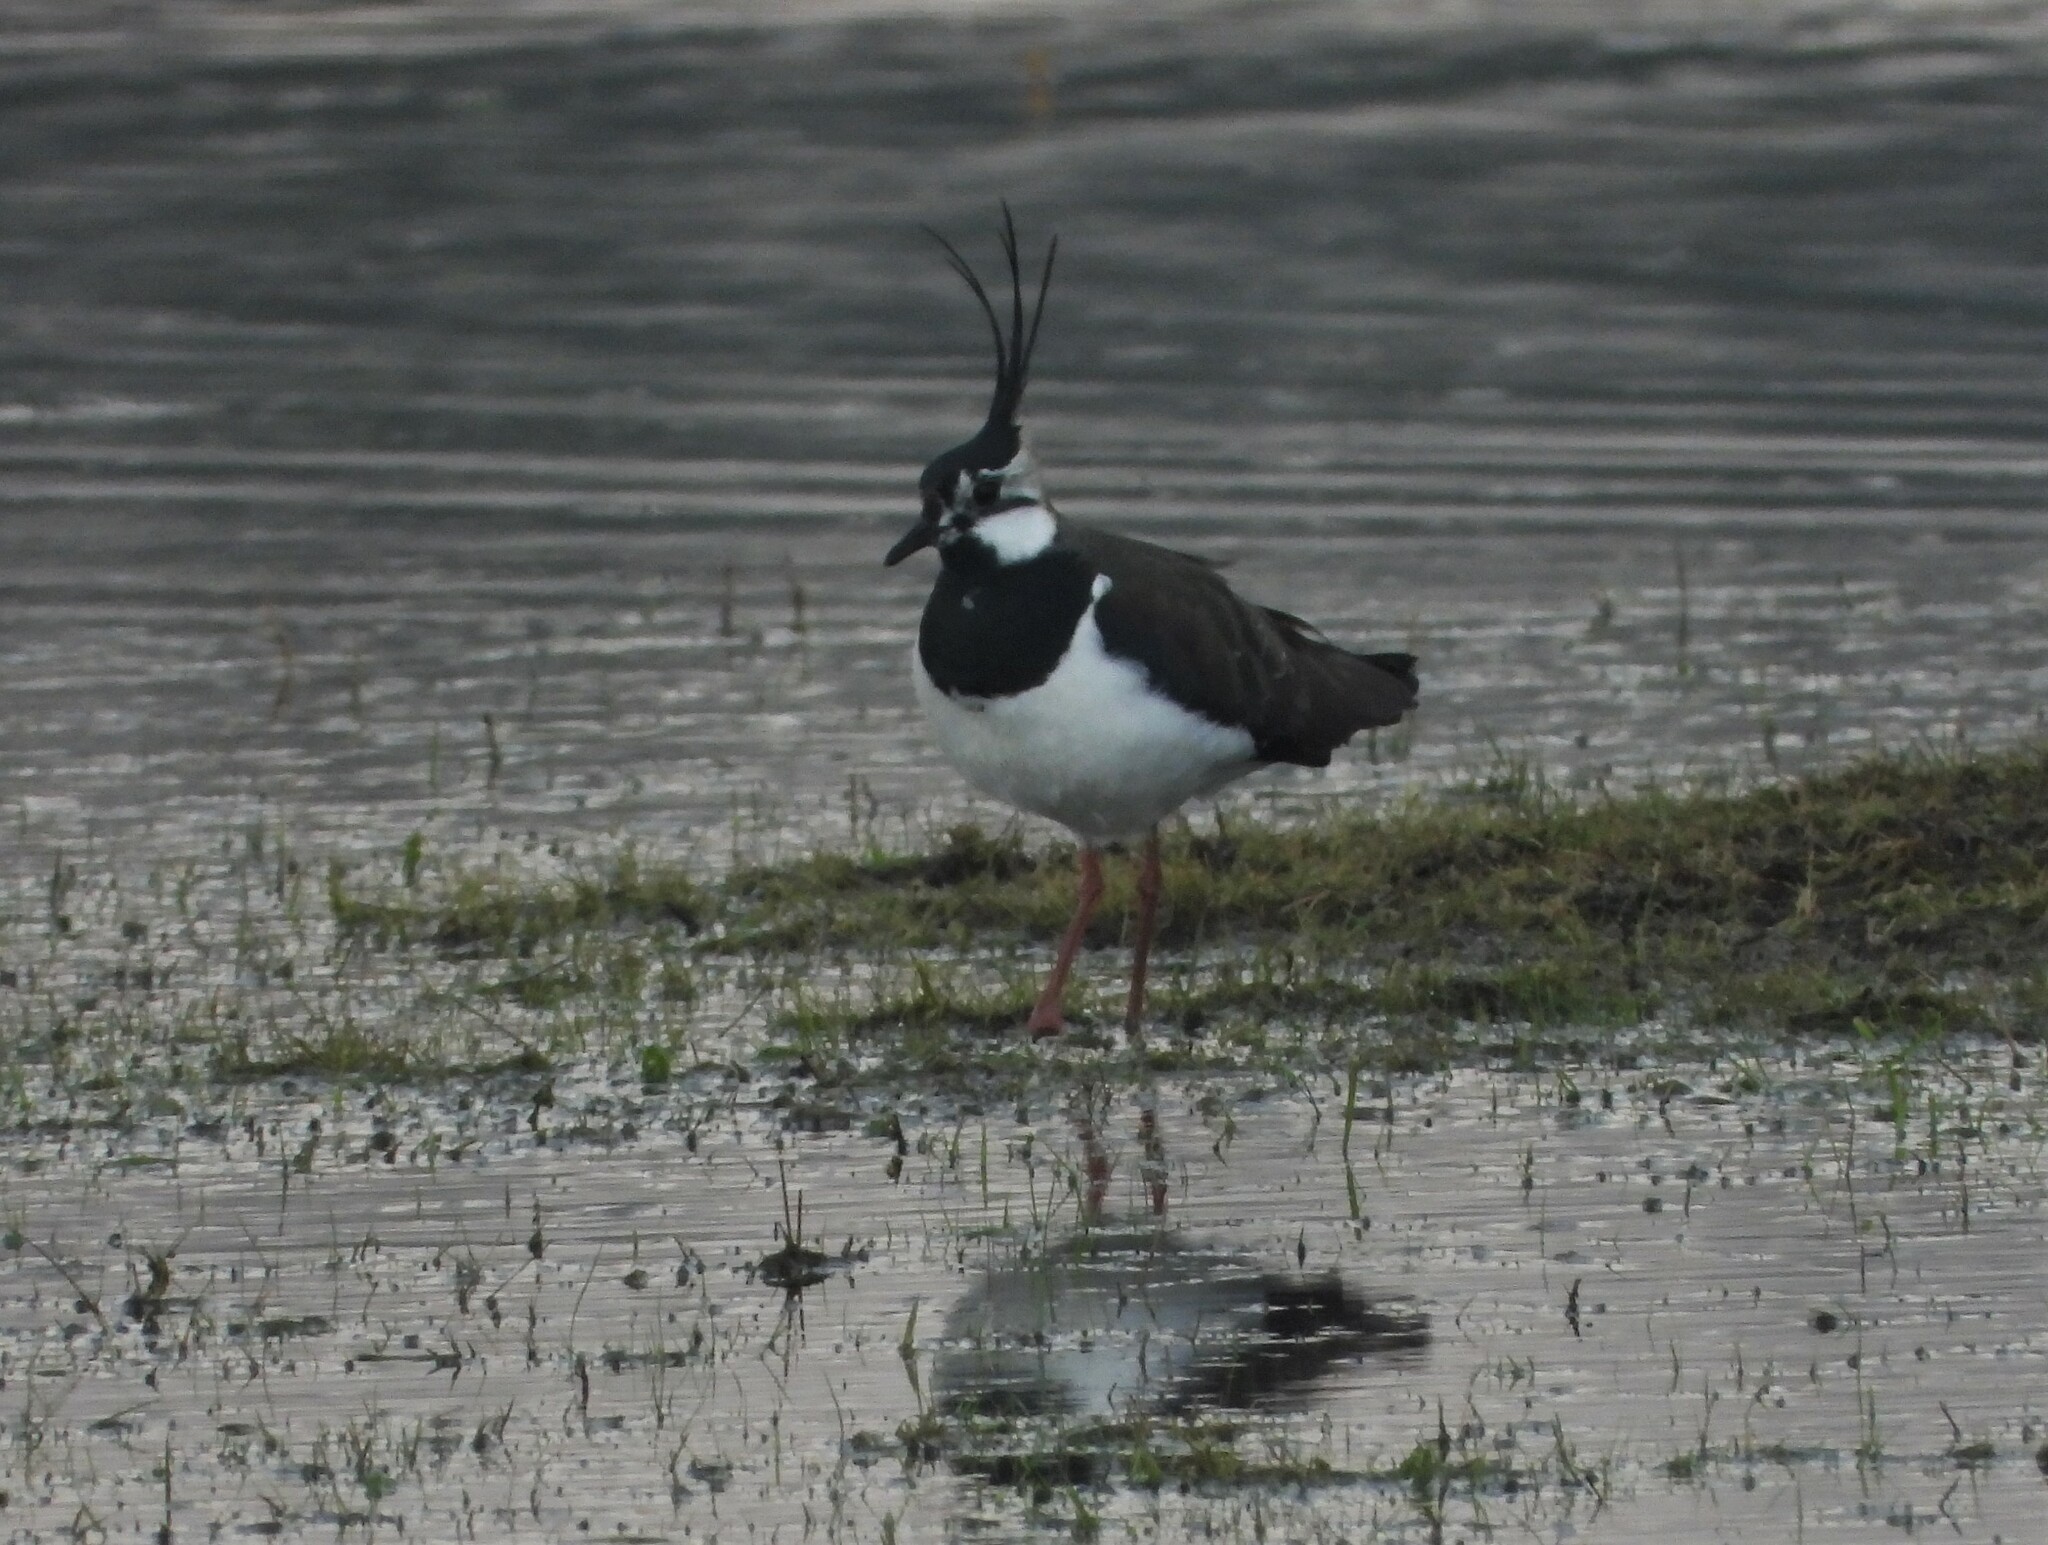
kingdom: Animalia
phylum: Chordata
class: Aves
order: Charadriiformes
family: Charadriidae
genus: Vanellus
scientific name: Vanellus vanellus
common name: Northern lapwing
